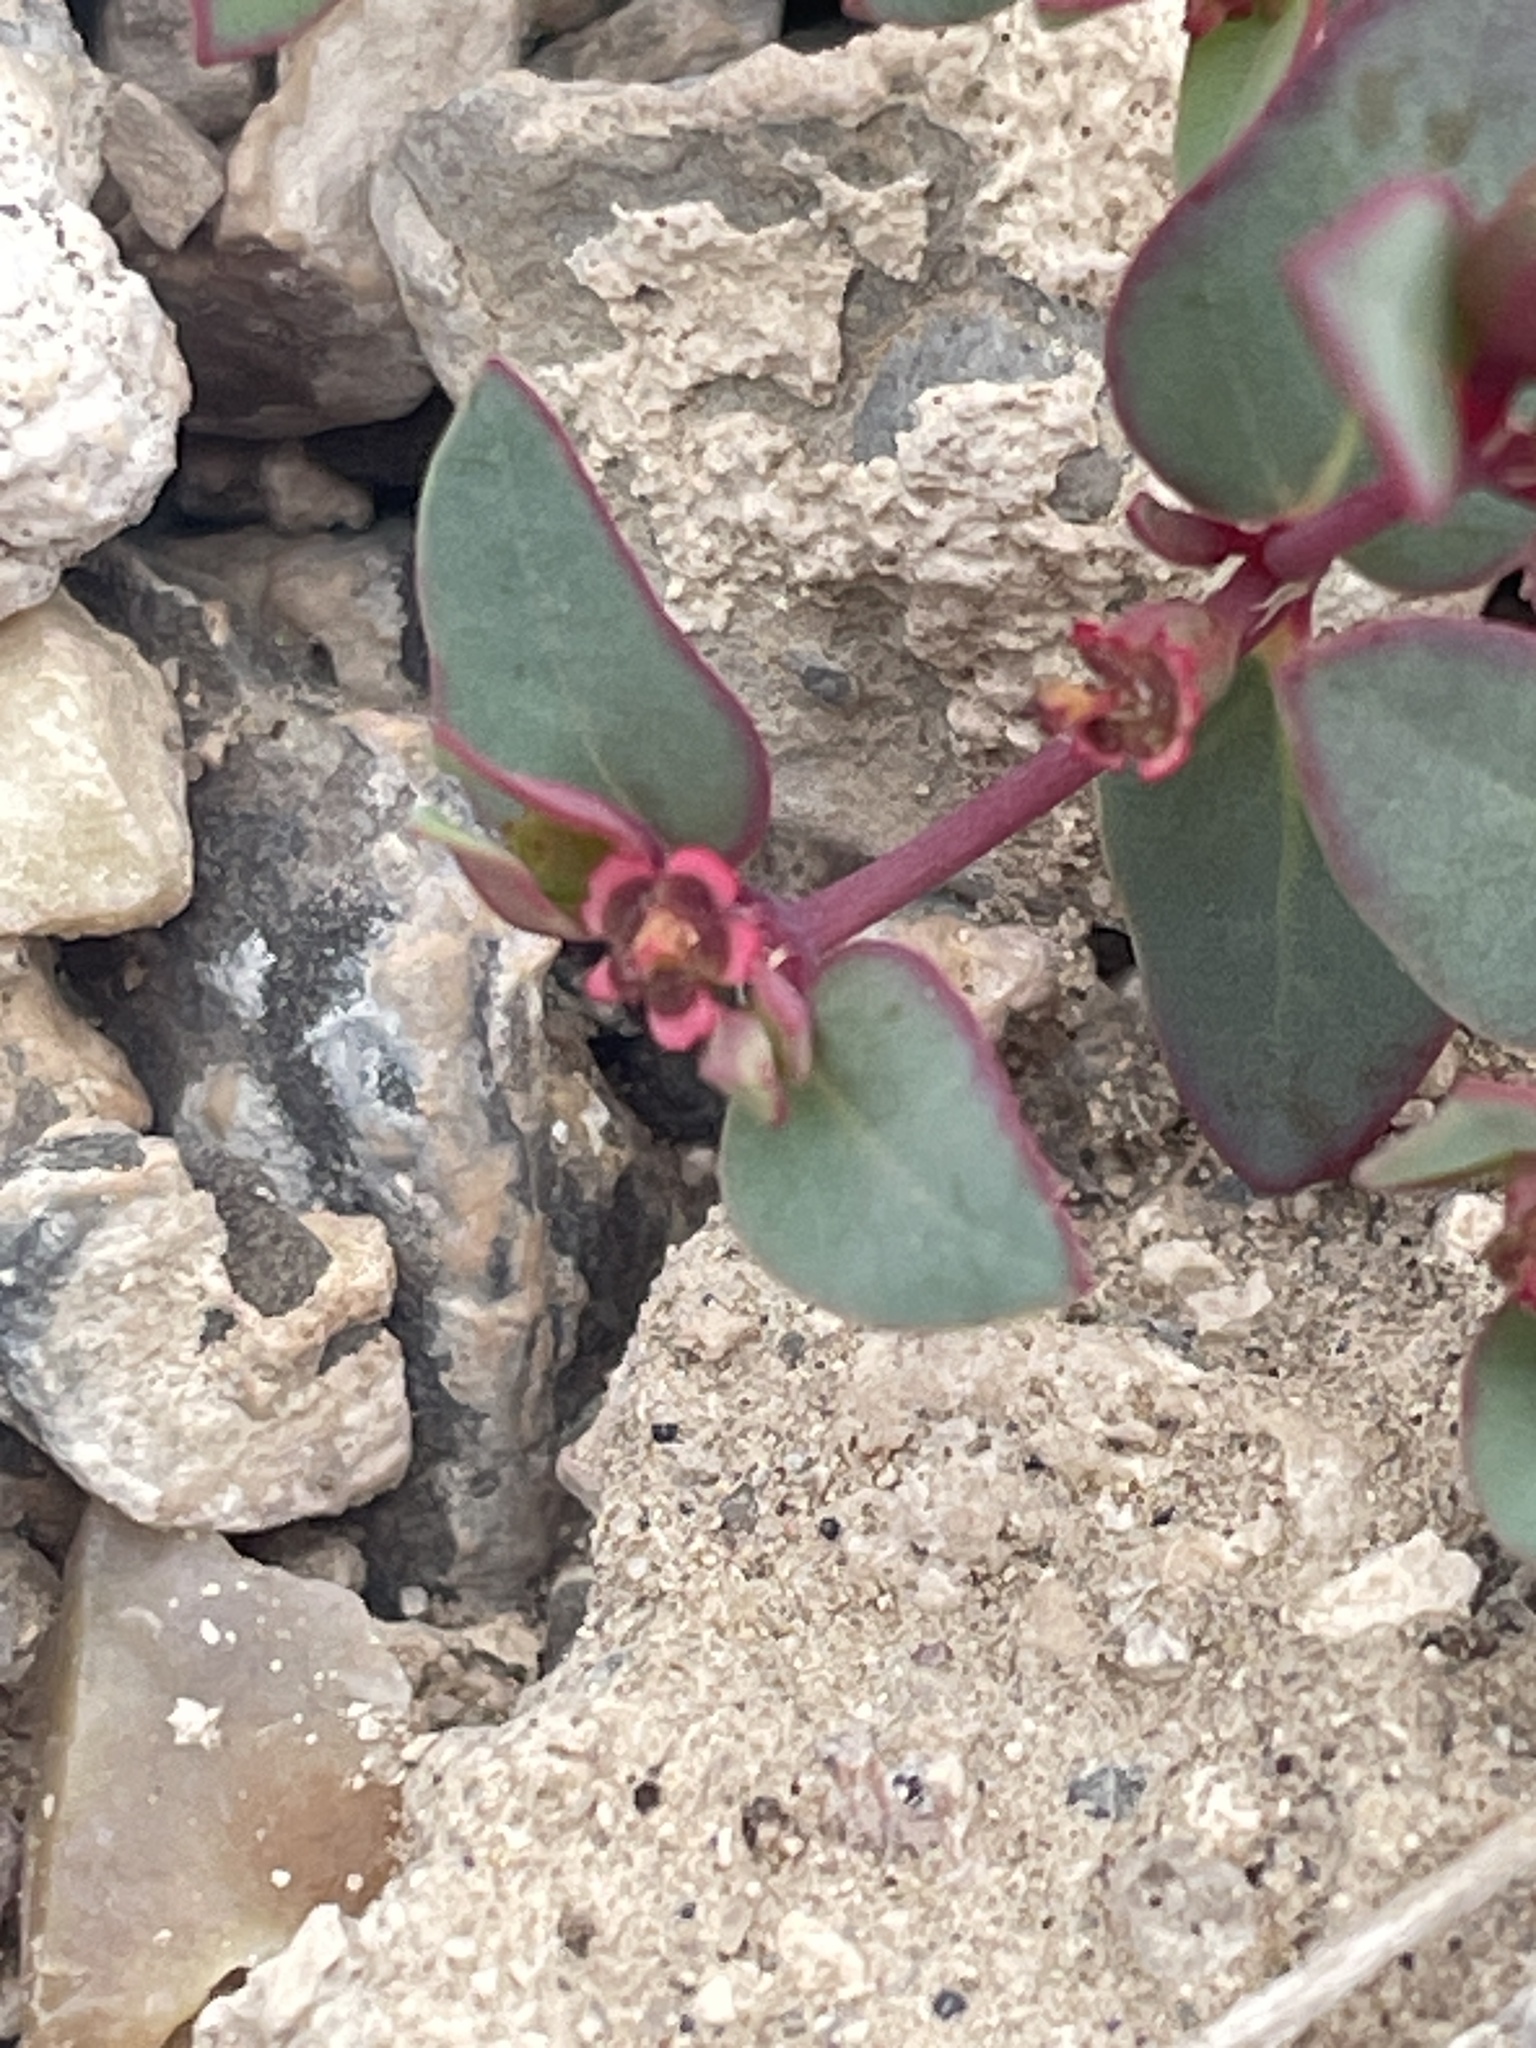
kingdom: Plantae
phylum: Tracheophyta
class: Magnoliopsida
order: Malpighiales
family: Euphorbiaceae
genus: Euphorbia
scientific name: Euphorbia fendleri
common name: Fendler's euphorbia
